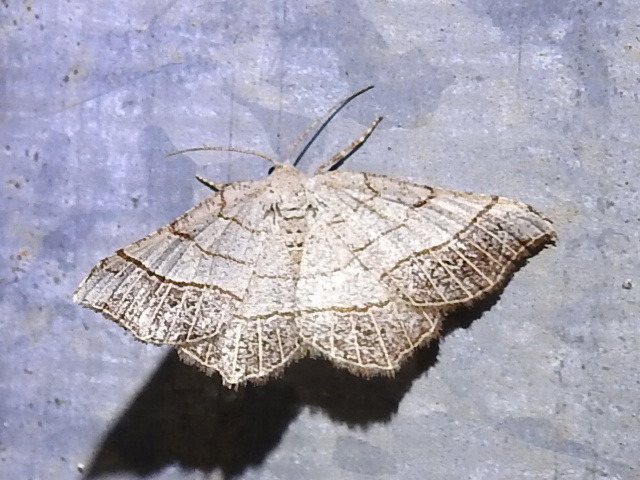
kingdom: Animalia
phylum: Arthropoda
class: Insecta
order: Lepidoptera
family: Geometridae
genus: Eumacaria
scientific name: Eumacaria madopata
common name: Brown-bordered geometer
